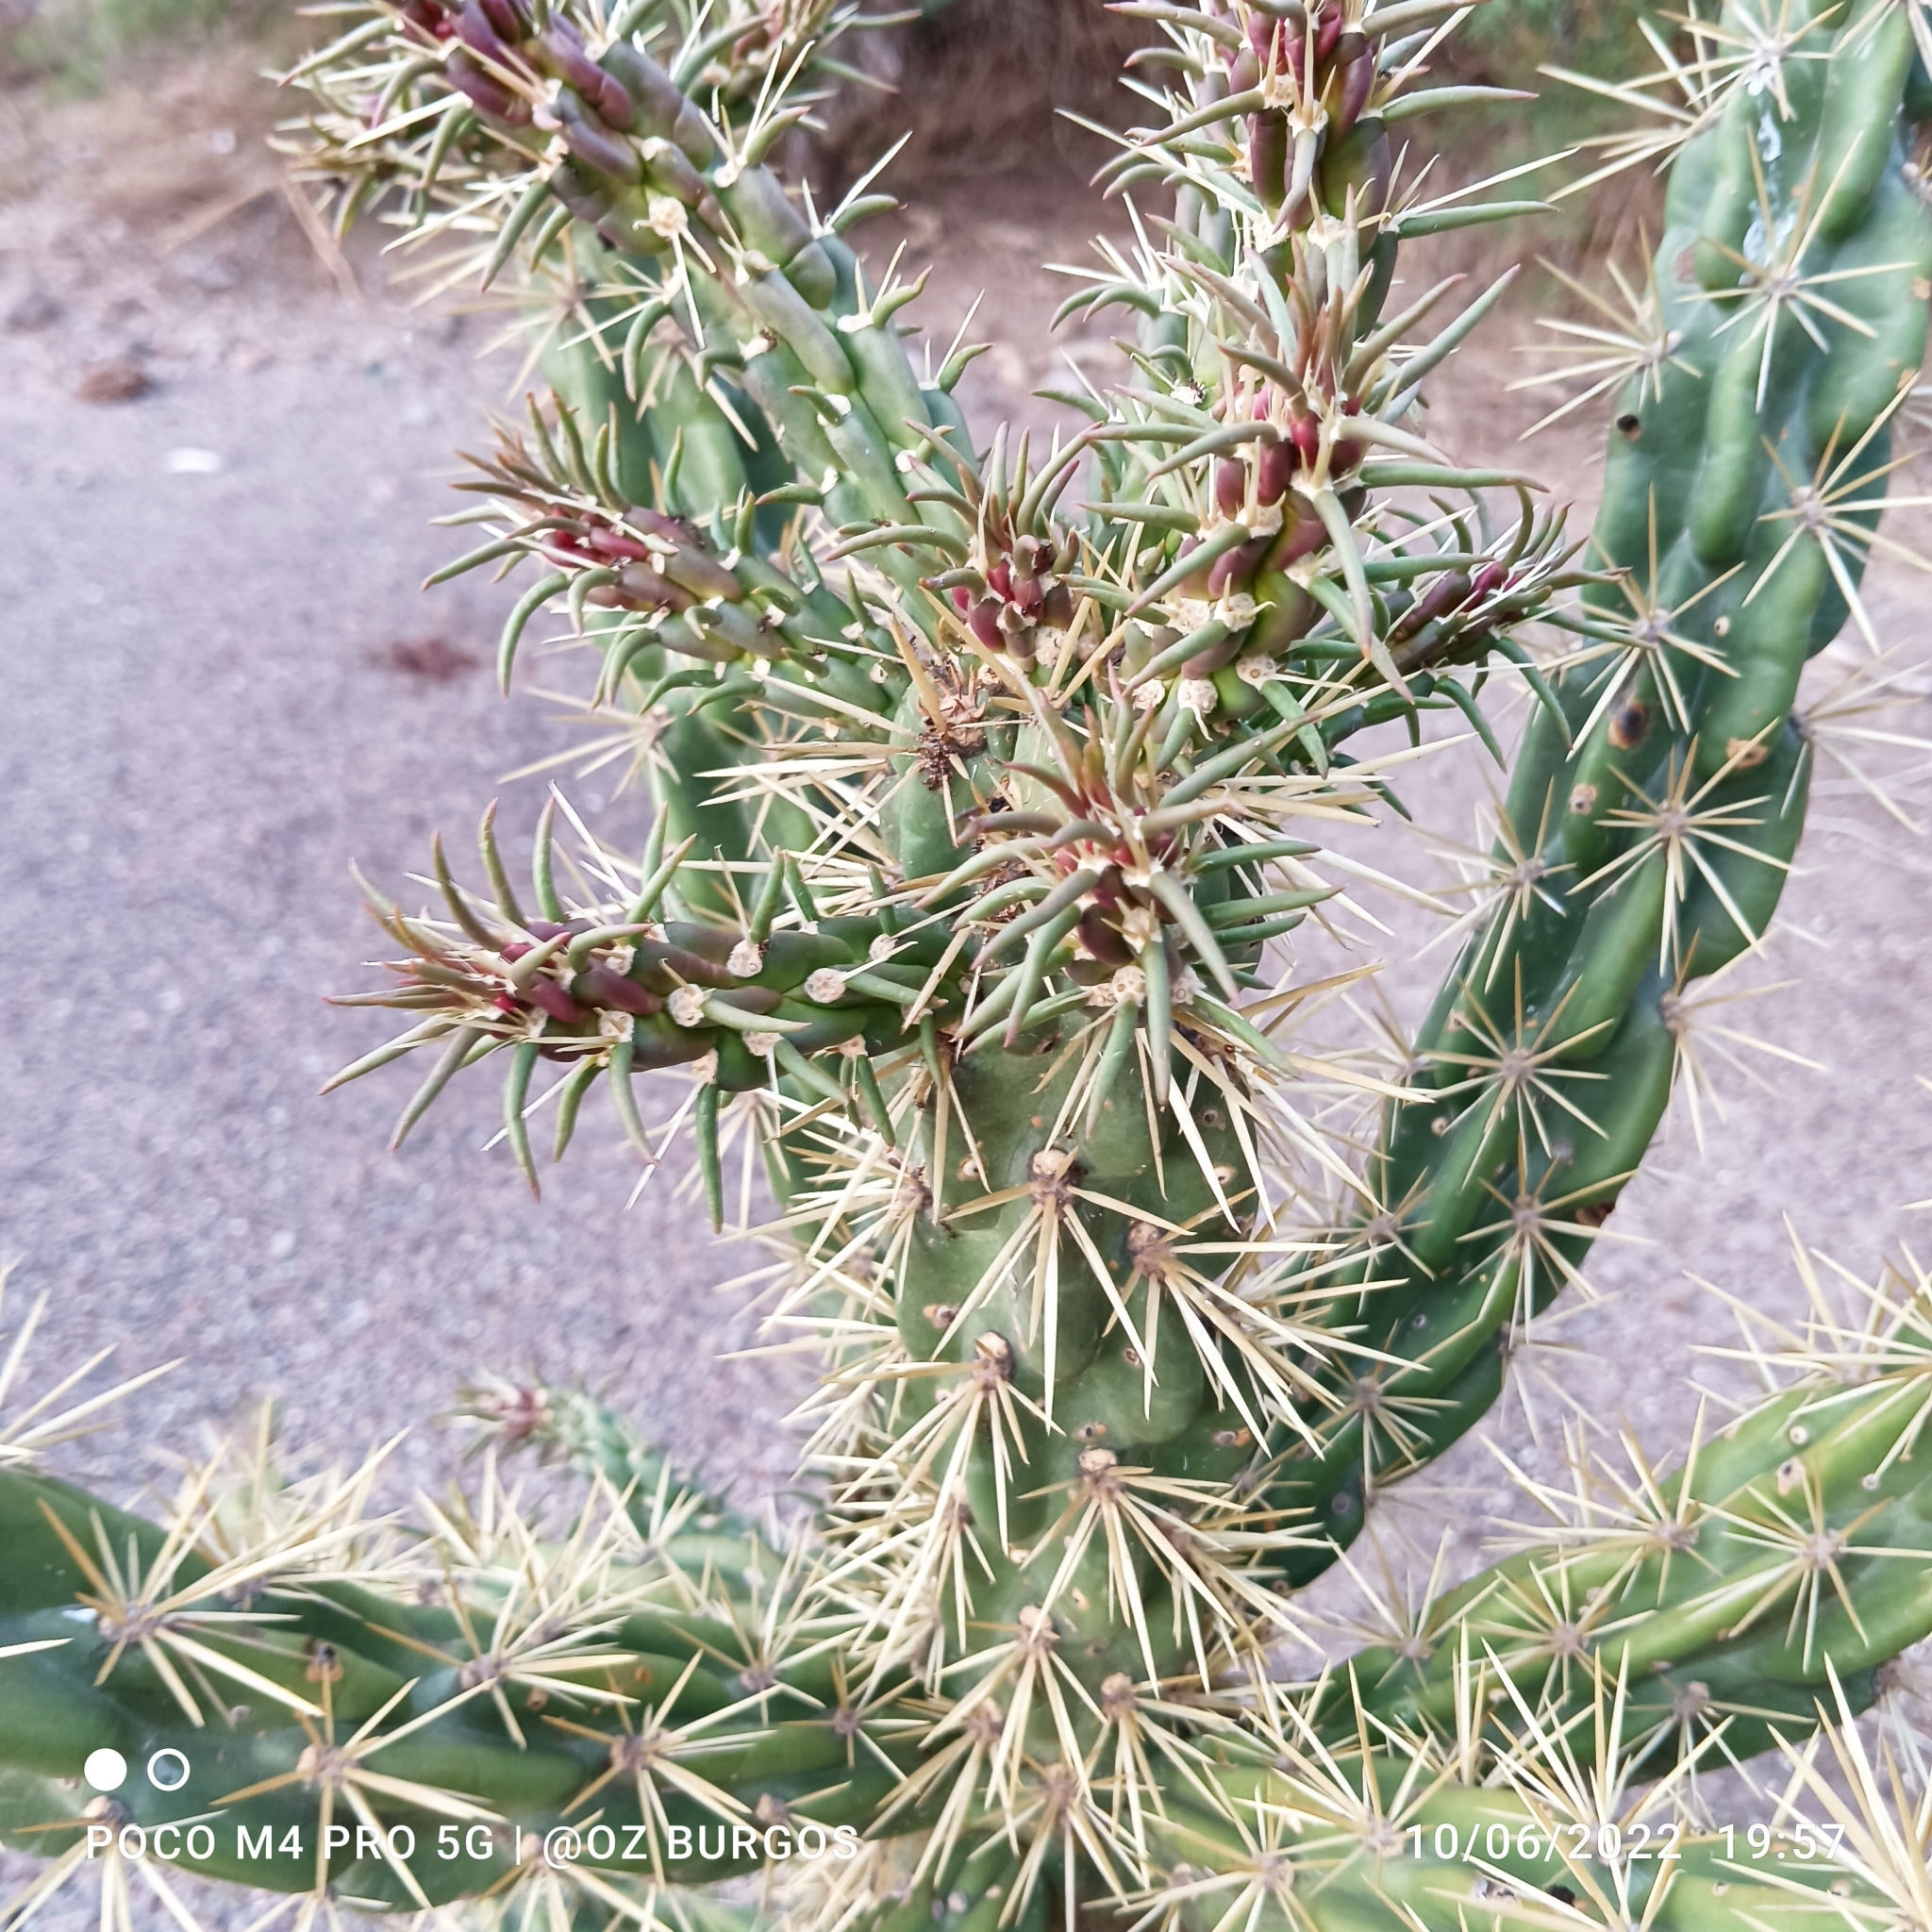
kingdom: Plantae
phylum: Tracheophyta
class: Magnoliopsida
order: Caryophyllales
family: Cactaceae
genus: Cylindropuntia
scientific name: Cylindropuntia imbricata
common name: Candelabrum cactus
